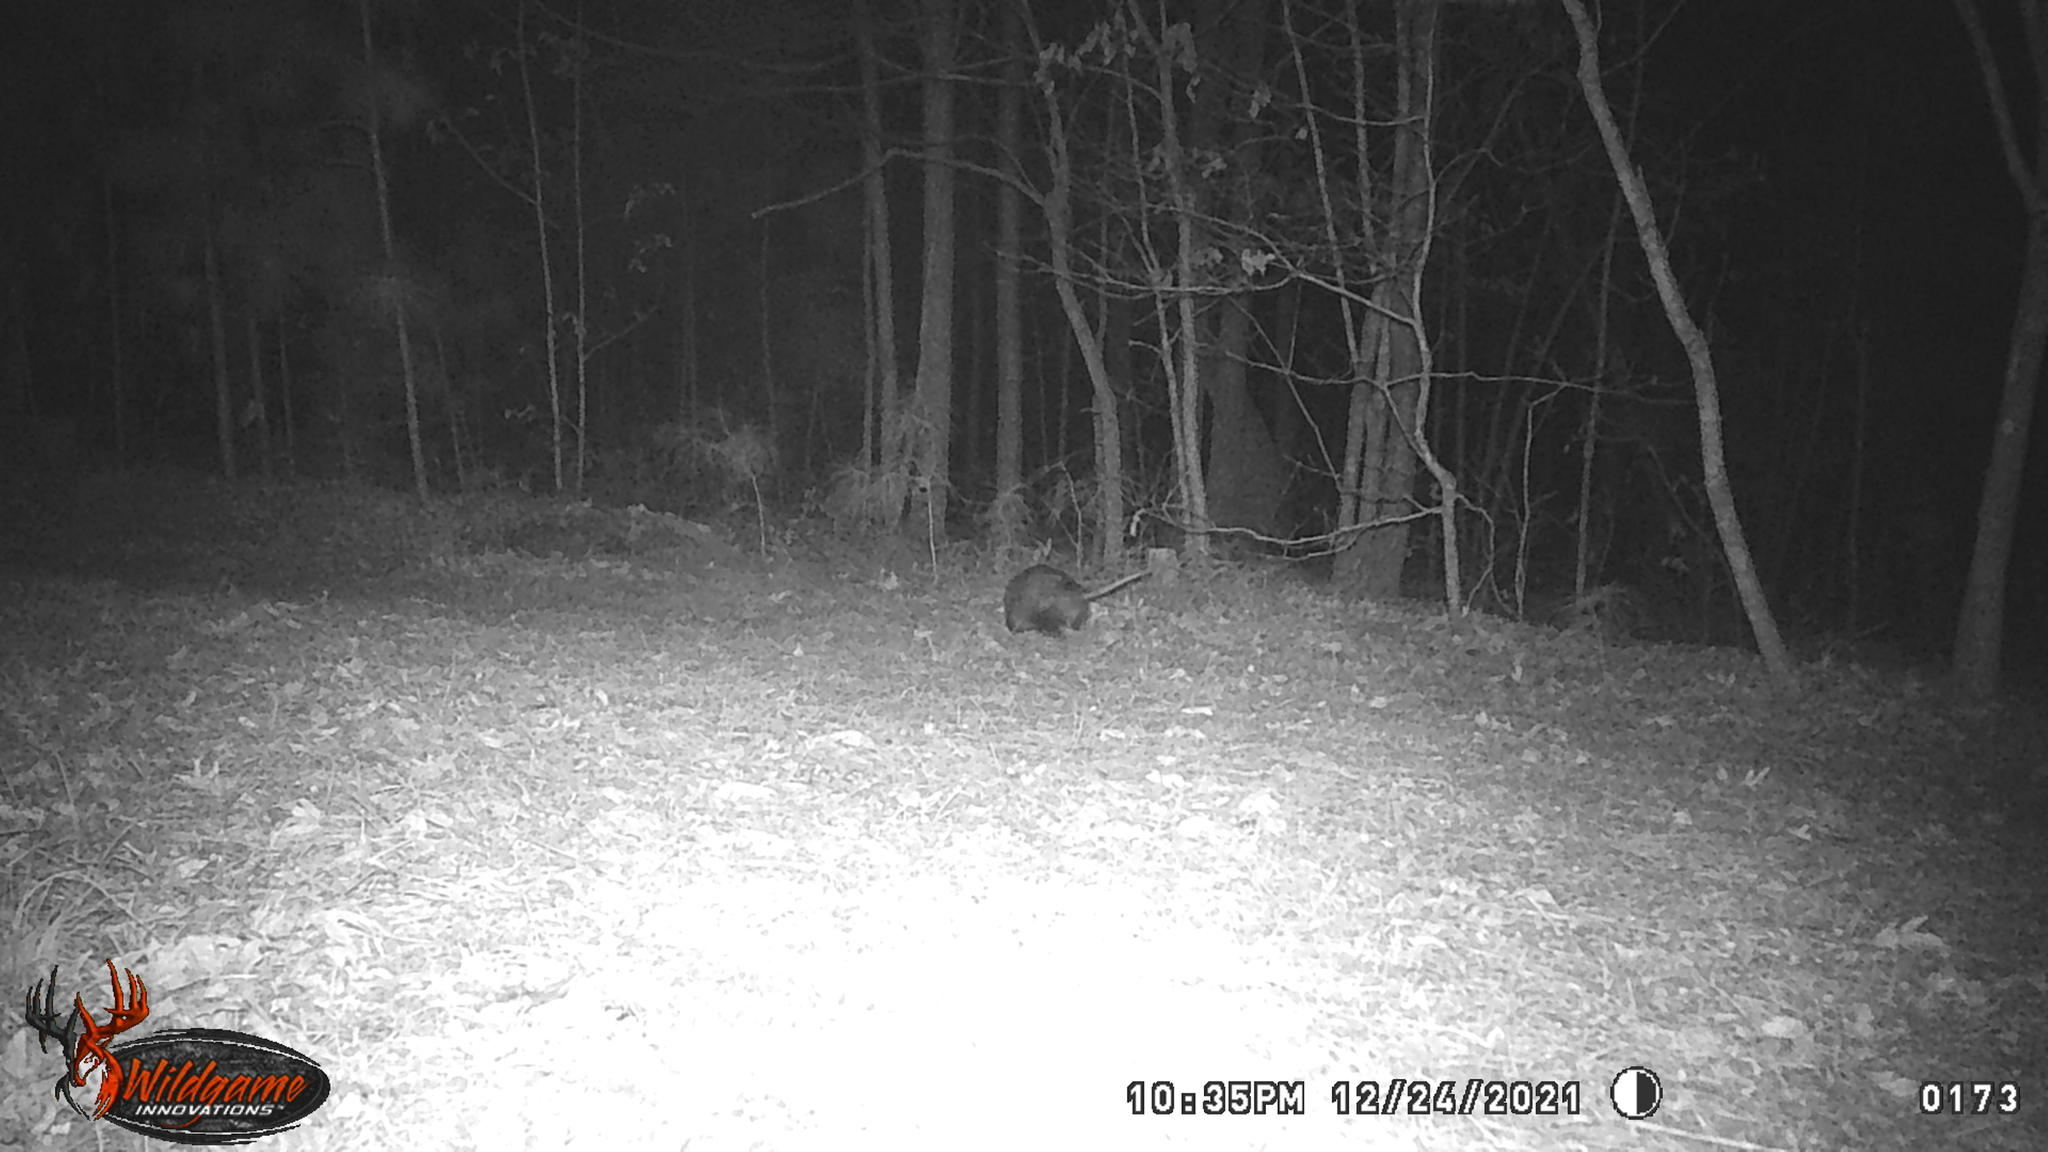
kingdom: Animalia
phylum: Chordata
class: Mammalia
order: Didelphimorphia
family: Didelphidae
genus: Didelphis
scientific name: Didelphis virginiana
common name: Virginia opossum
